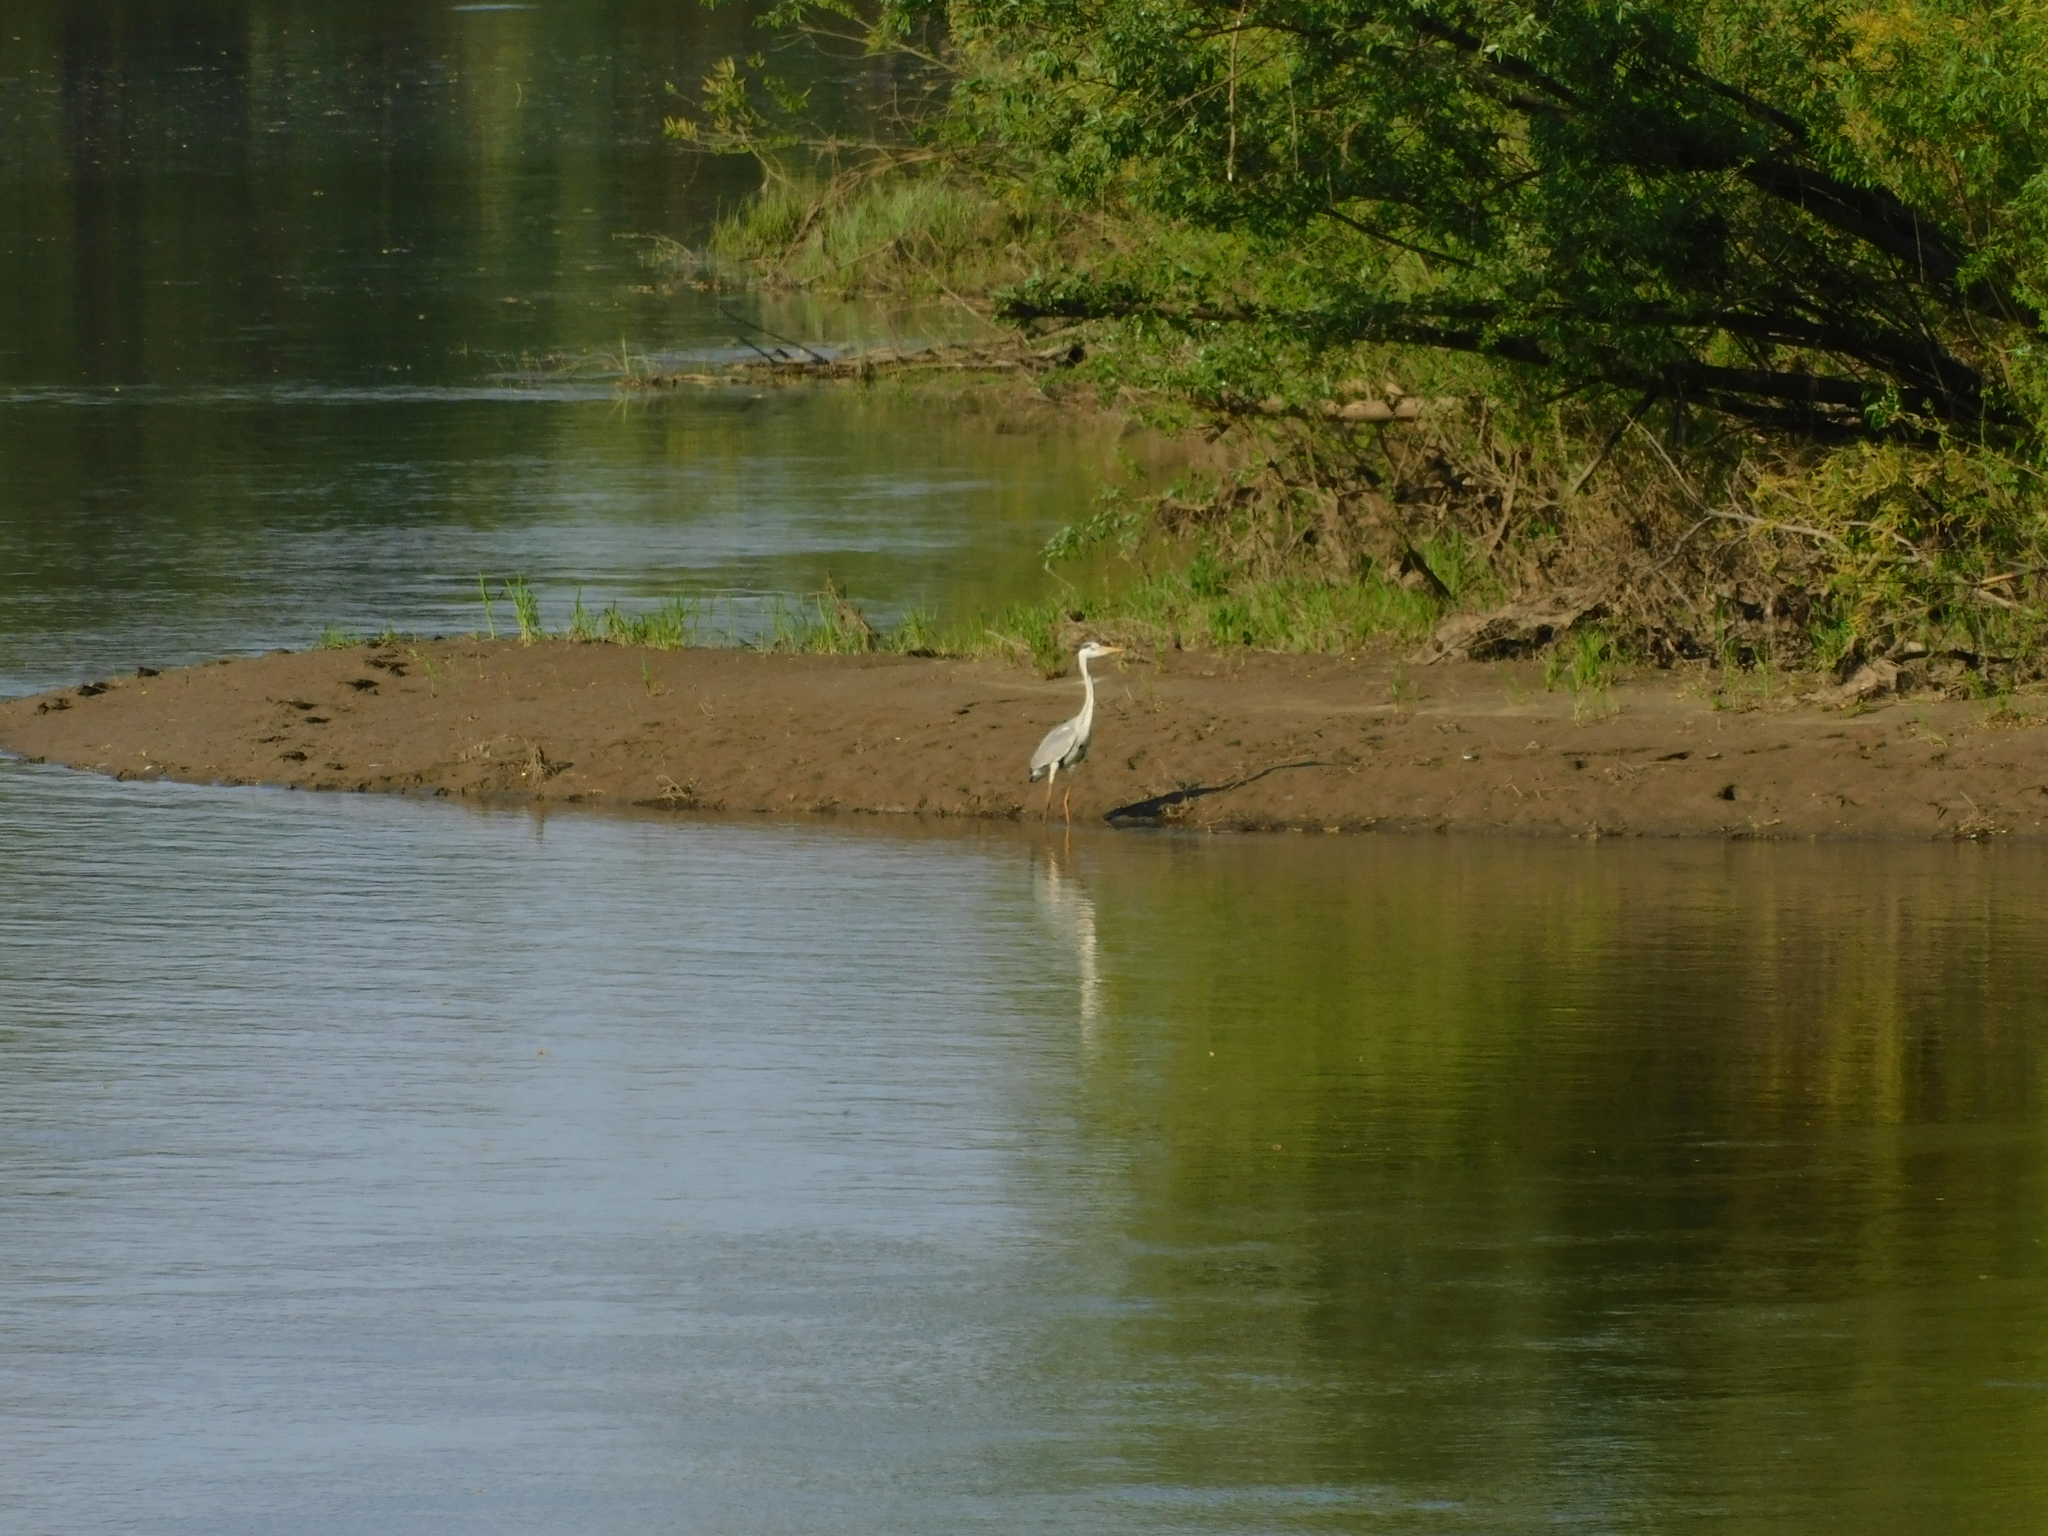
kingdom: Animalia
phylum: Chordata
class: Aves
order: Pelecaniformes
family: Ardeidae
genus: Ardea
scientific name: Ardea cinerea
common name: Grey heron
